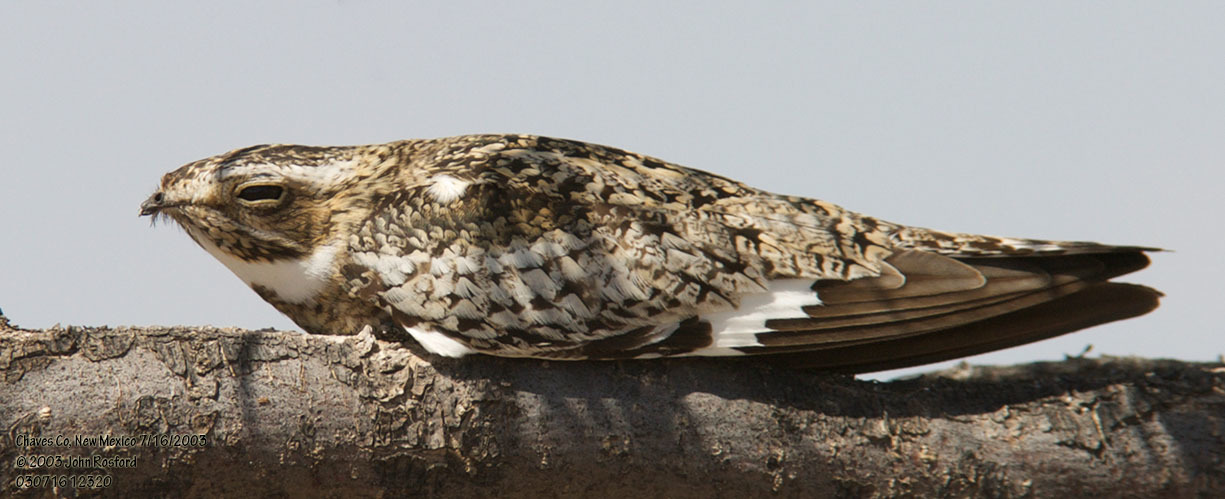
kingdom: Animalia
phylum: Chordata
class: Aves
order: Caprimulgiformes
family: Caprimulgidae
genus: Chordeiles
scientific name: Chordeiles minor
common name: Common nighthawk
